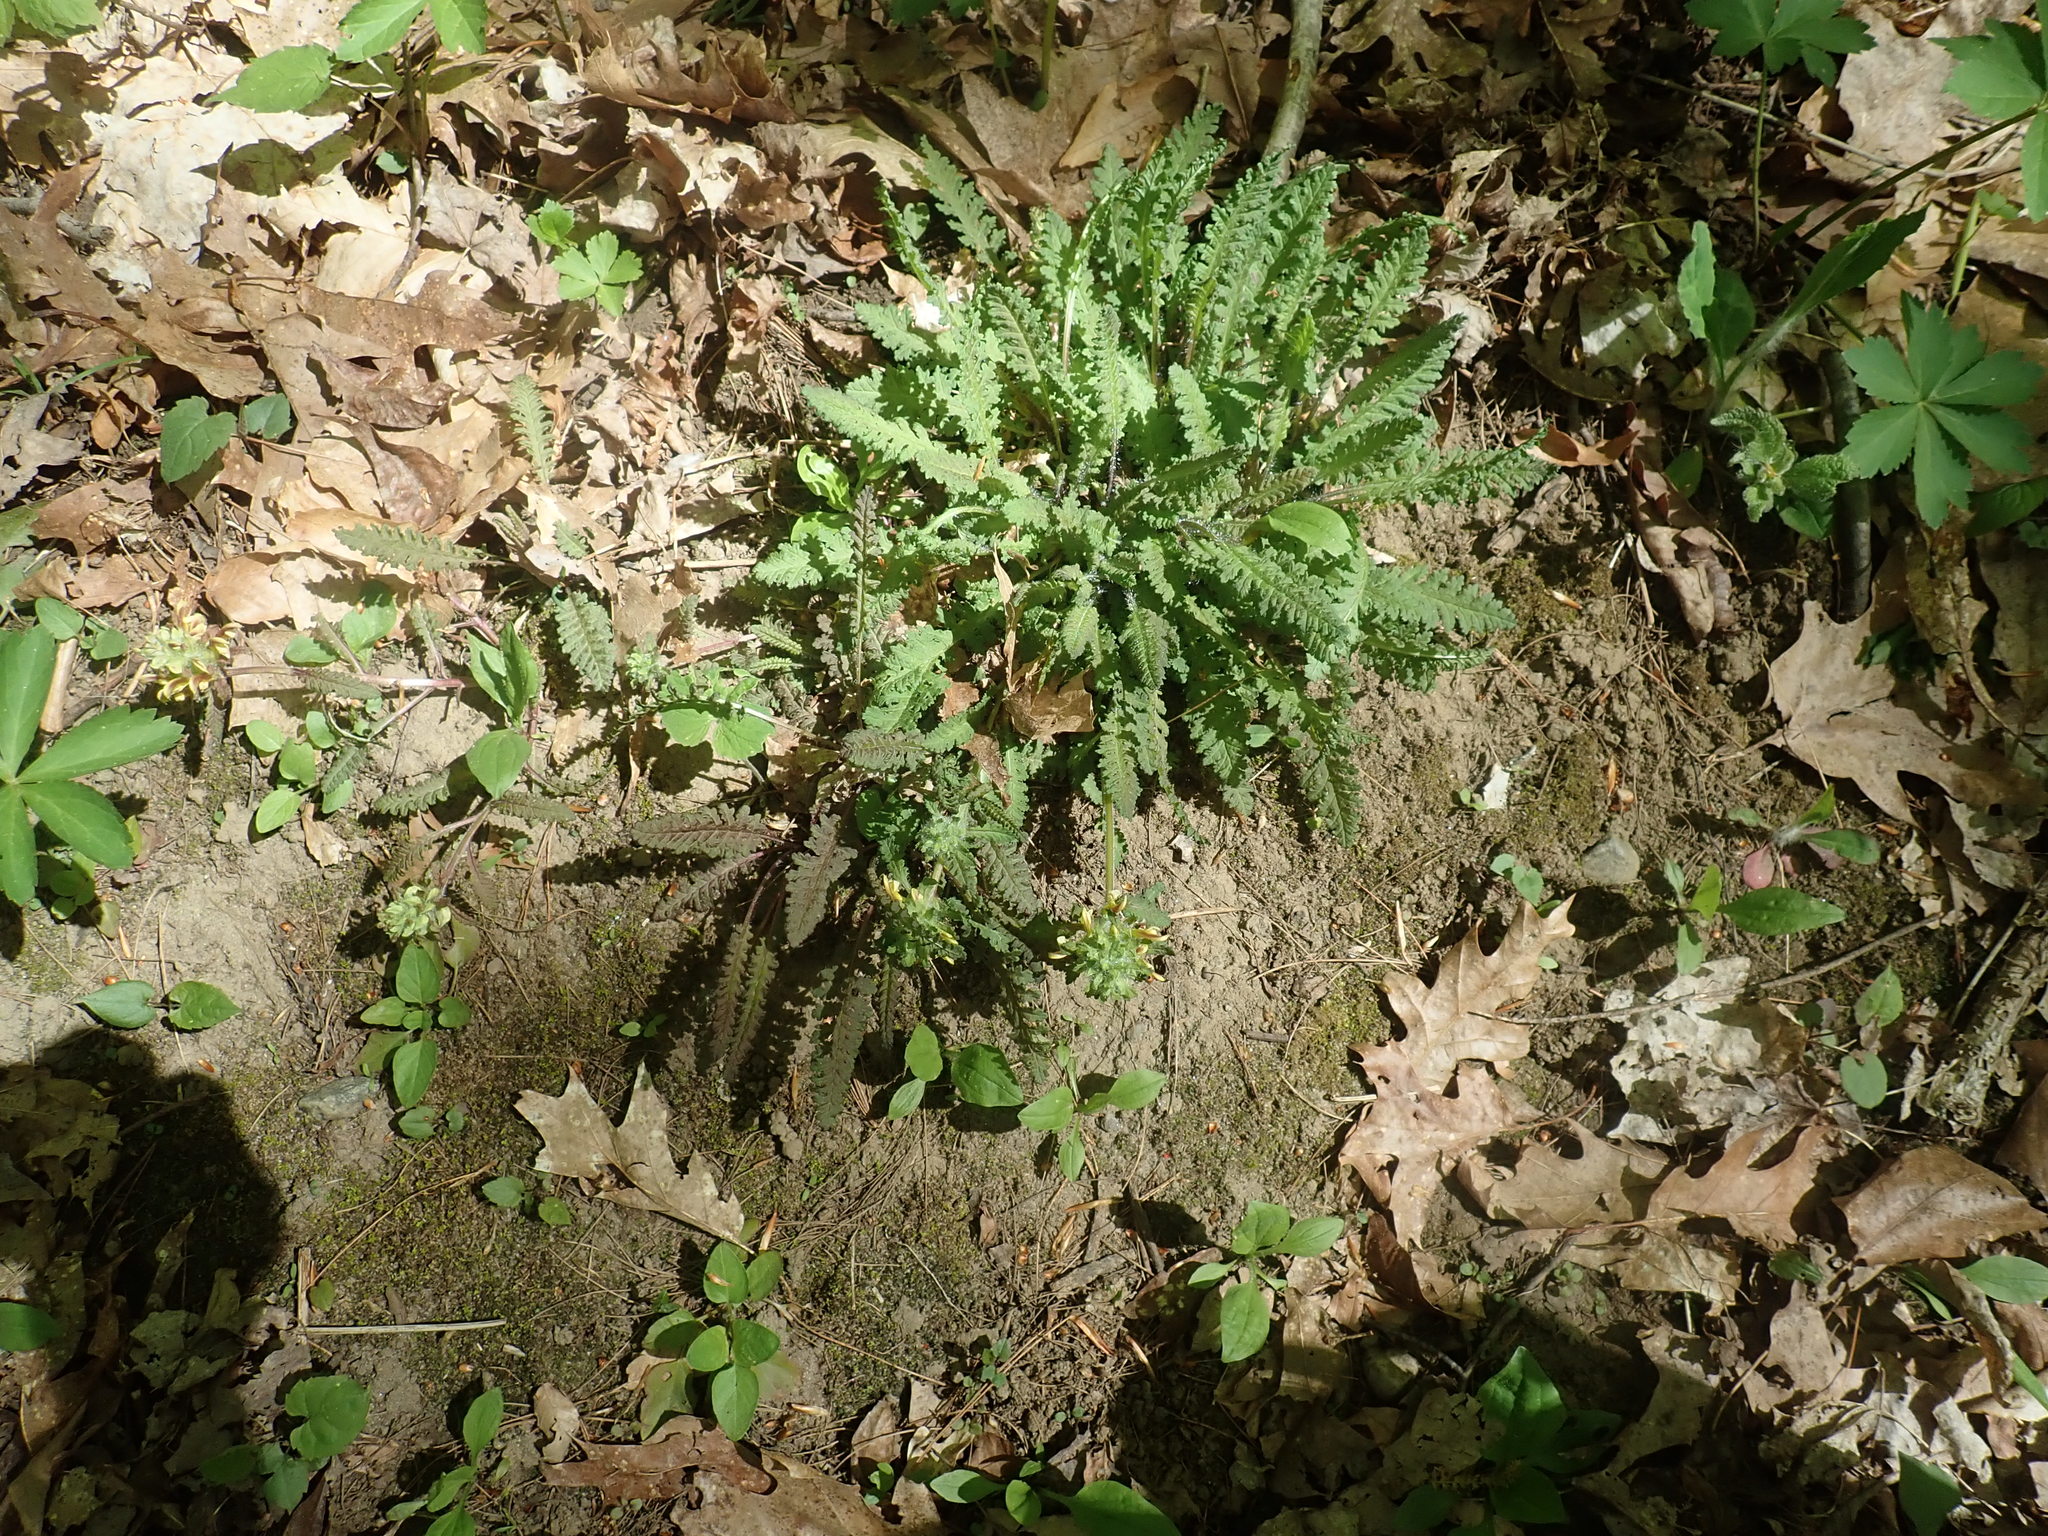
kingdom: Plantae
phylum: Tracheophyta
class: Magnoliopsida
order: Lamiales
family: Orobanchaceae
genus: Pedicularis
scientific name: Pedicularis canadensis
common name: Early lousewort
